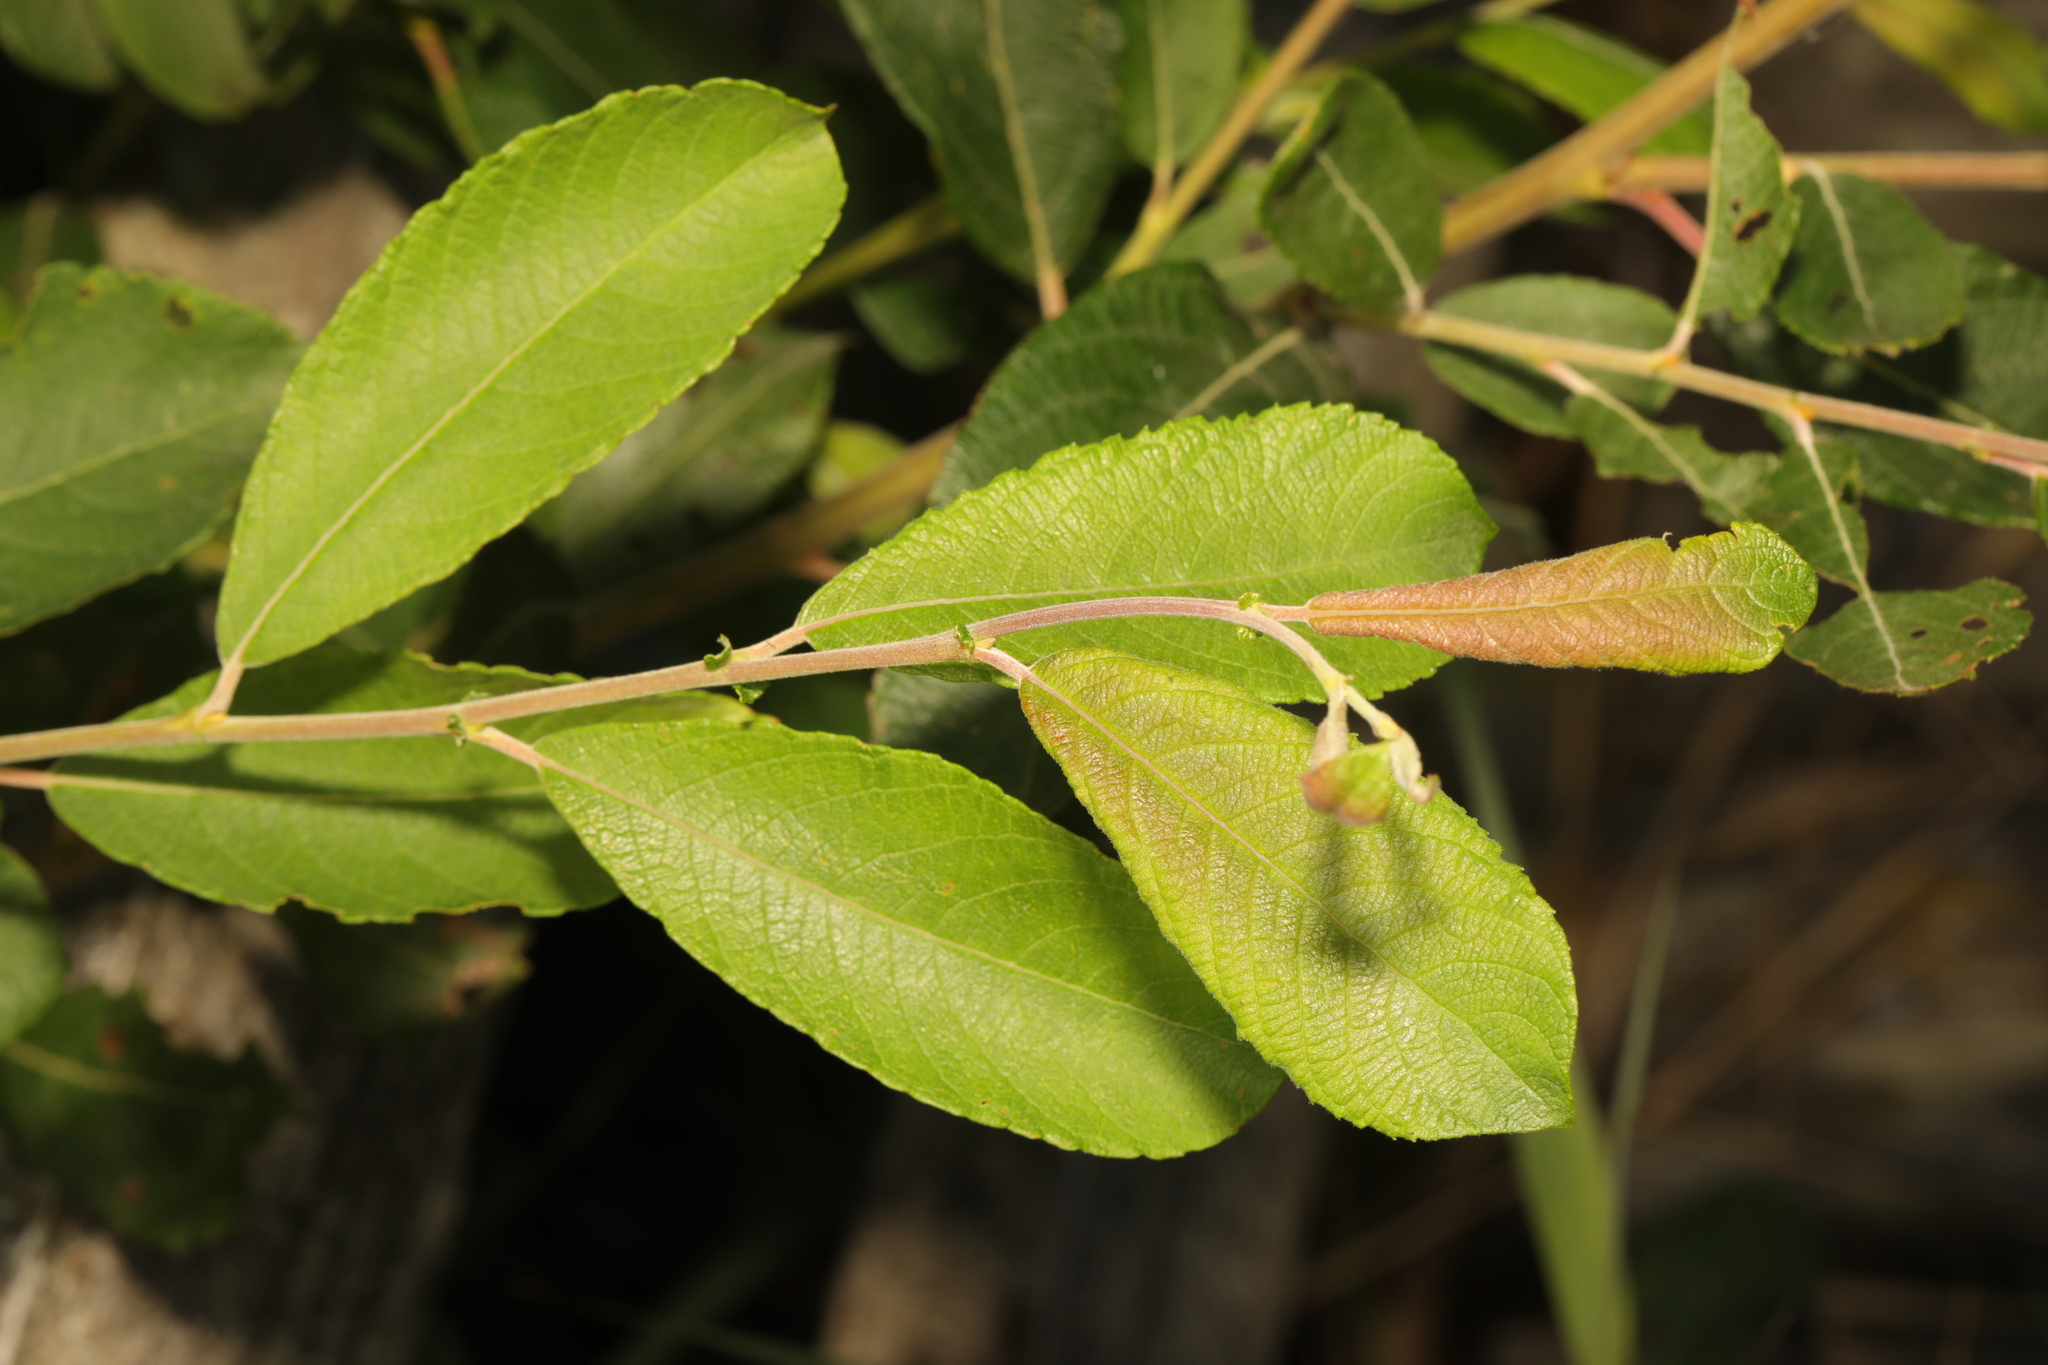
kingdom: Plantae
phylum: Tracheophyta
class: Magnoliopsida
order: Malpighiales
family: Salicaceae
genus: Salix
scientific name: Salix cinerea
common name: Common sallow
